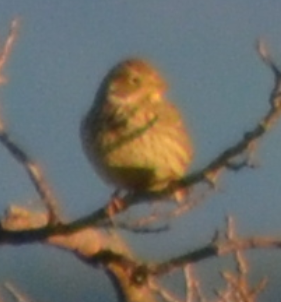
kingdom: Animalia
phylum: Chordata
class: Aves
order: Passeriformes
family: Emberizidae
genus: Emberiza
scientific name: Emberiza calandra
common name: Corn bunting
